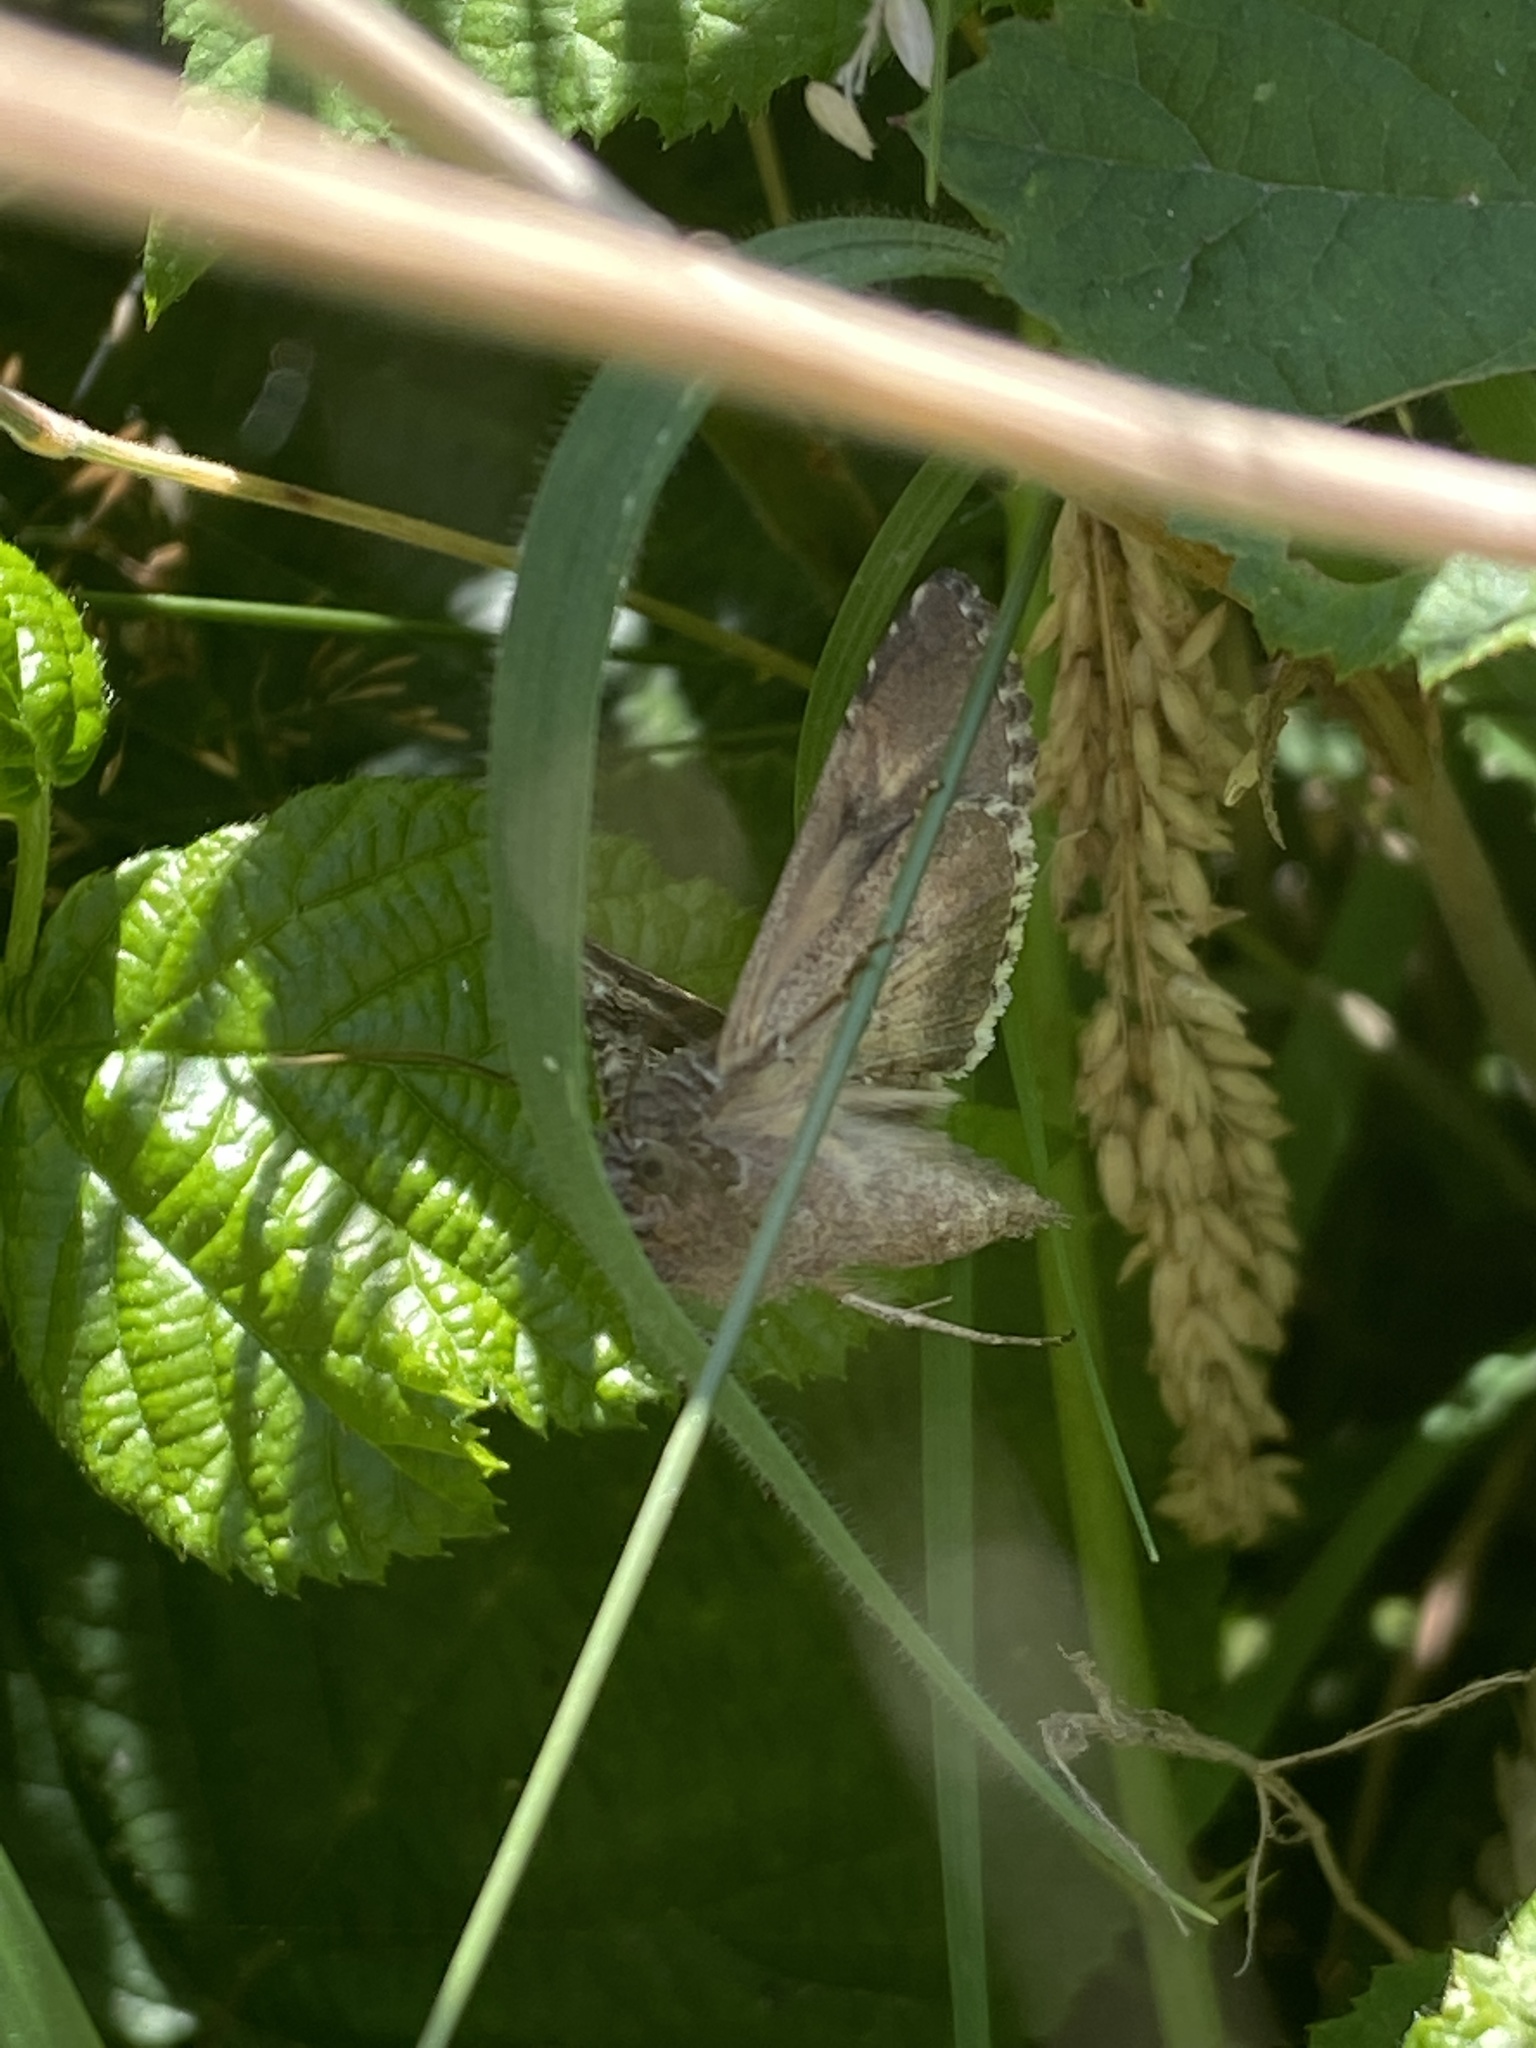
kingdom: Animalia
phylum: Arthropoda
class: Insecta
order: Lepidoptera
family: Noctuidae
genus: Autographa
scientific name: Autographa gamma
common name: Silver y
